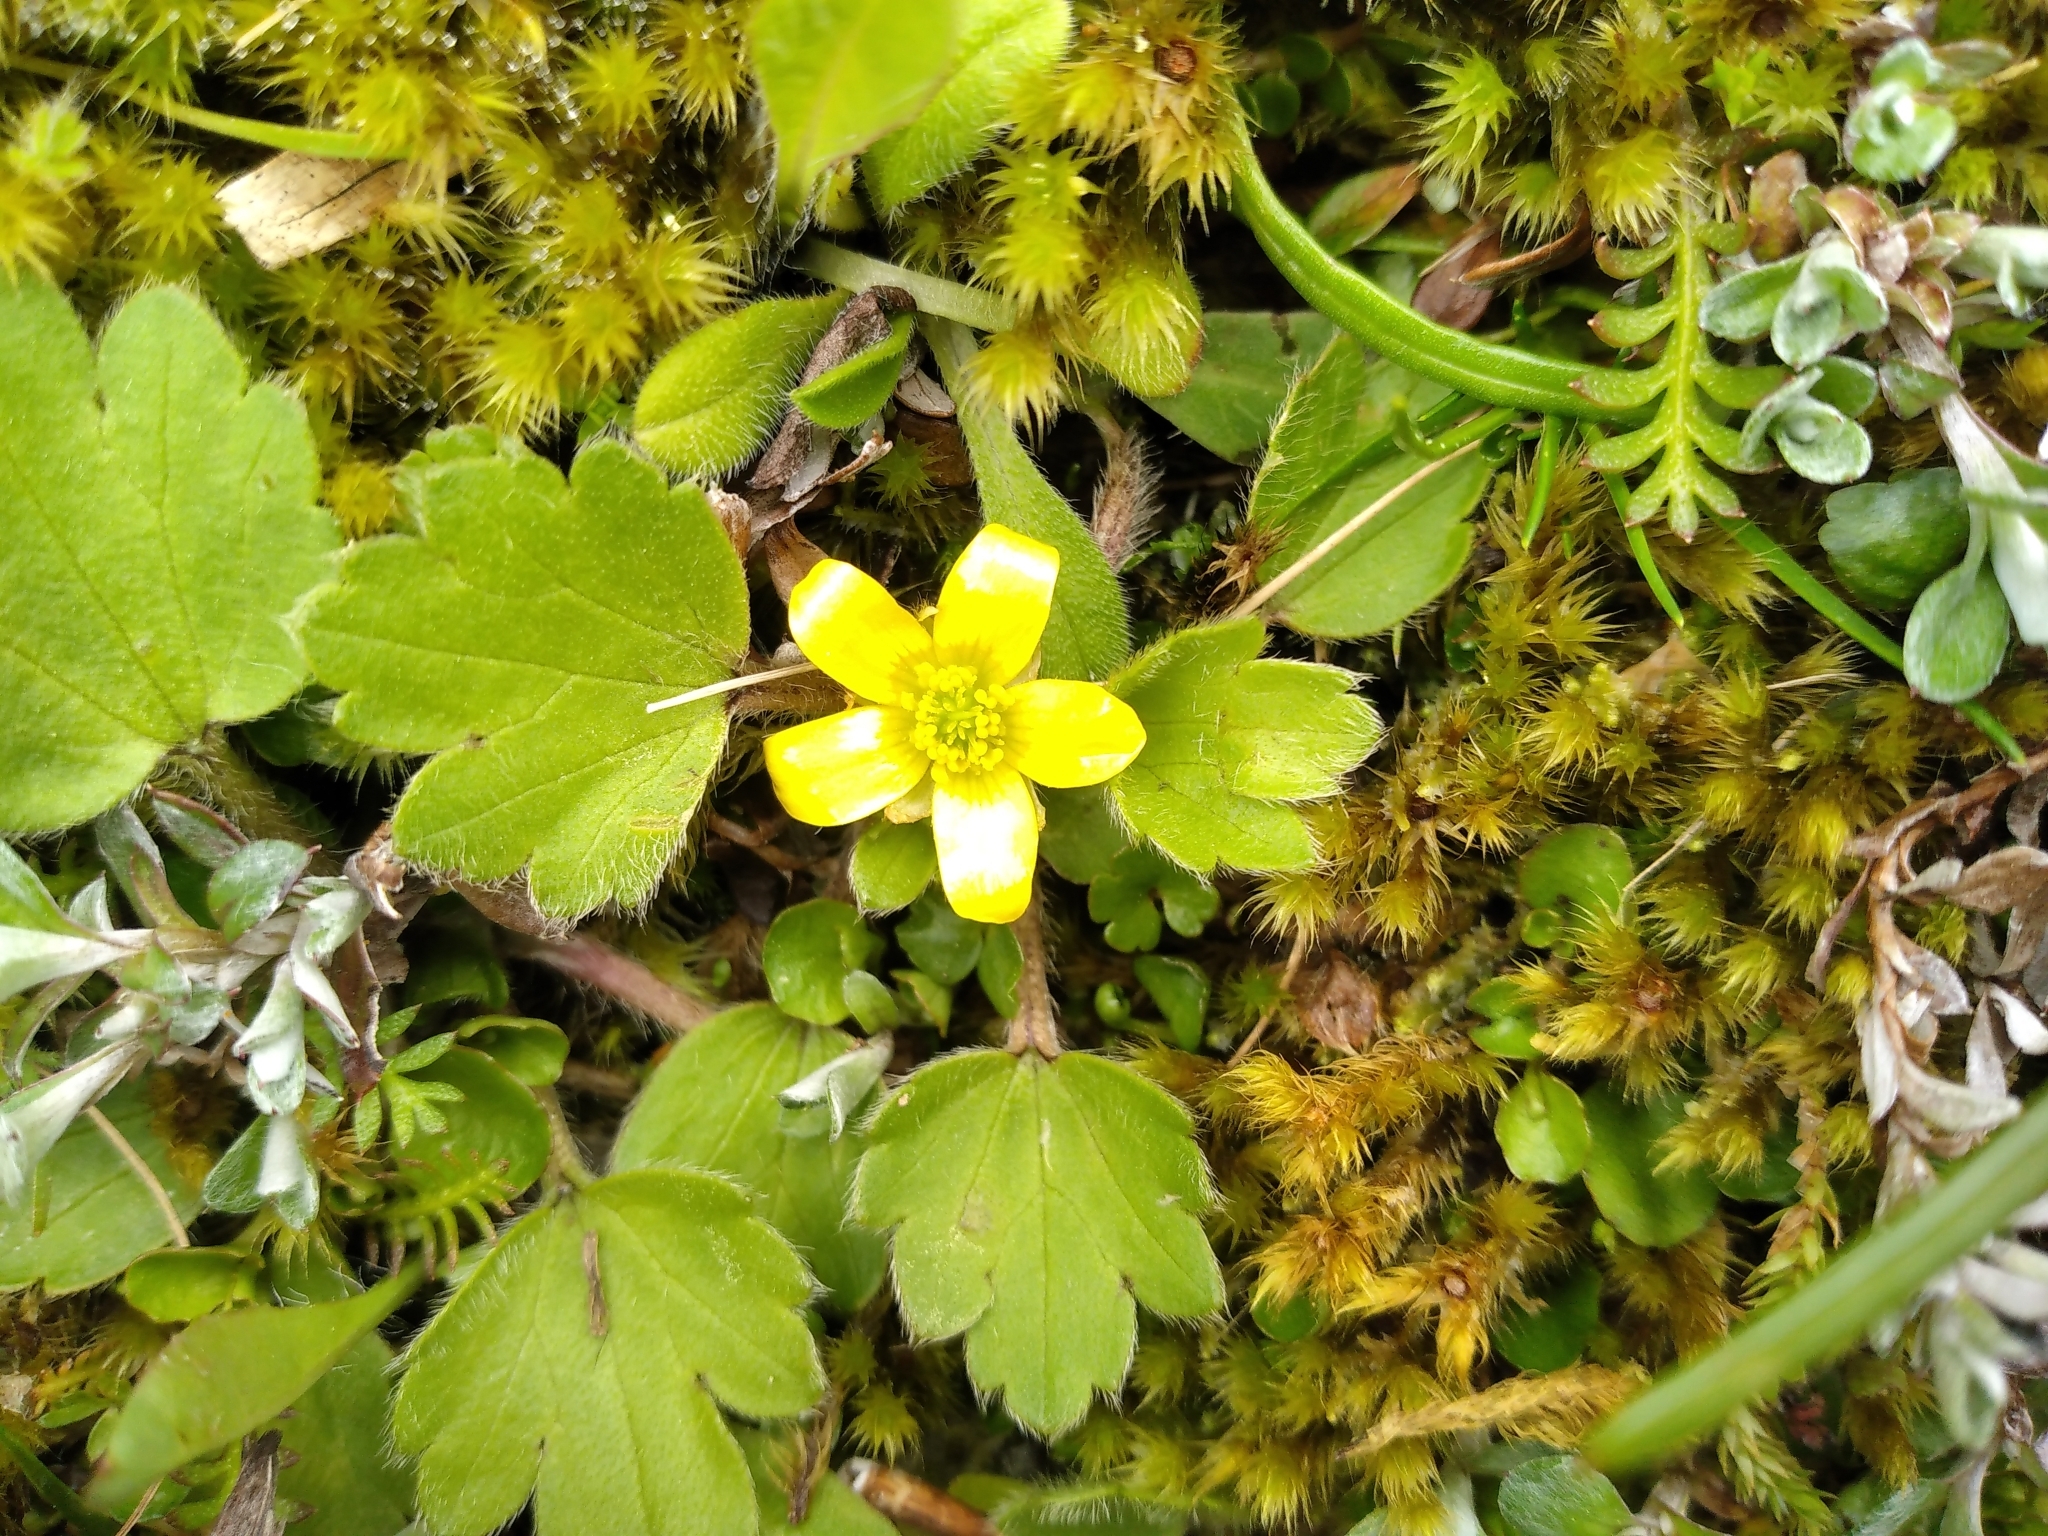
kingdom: Plantae
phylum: Tracheophyta
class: Magnoliopsida
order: Ranunculales
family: Ranunculaceae
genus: Ranunculus
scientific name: Ranunculus royi
